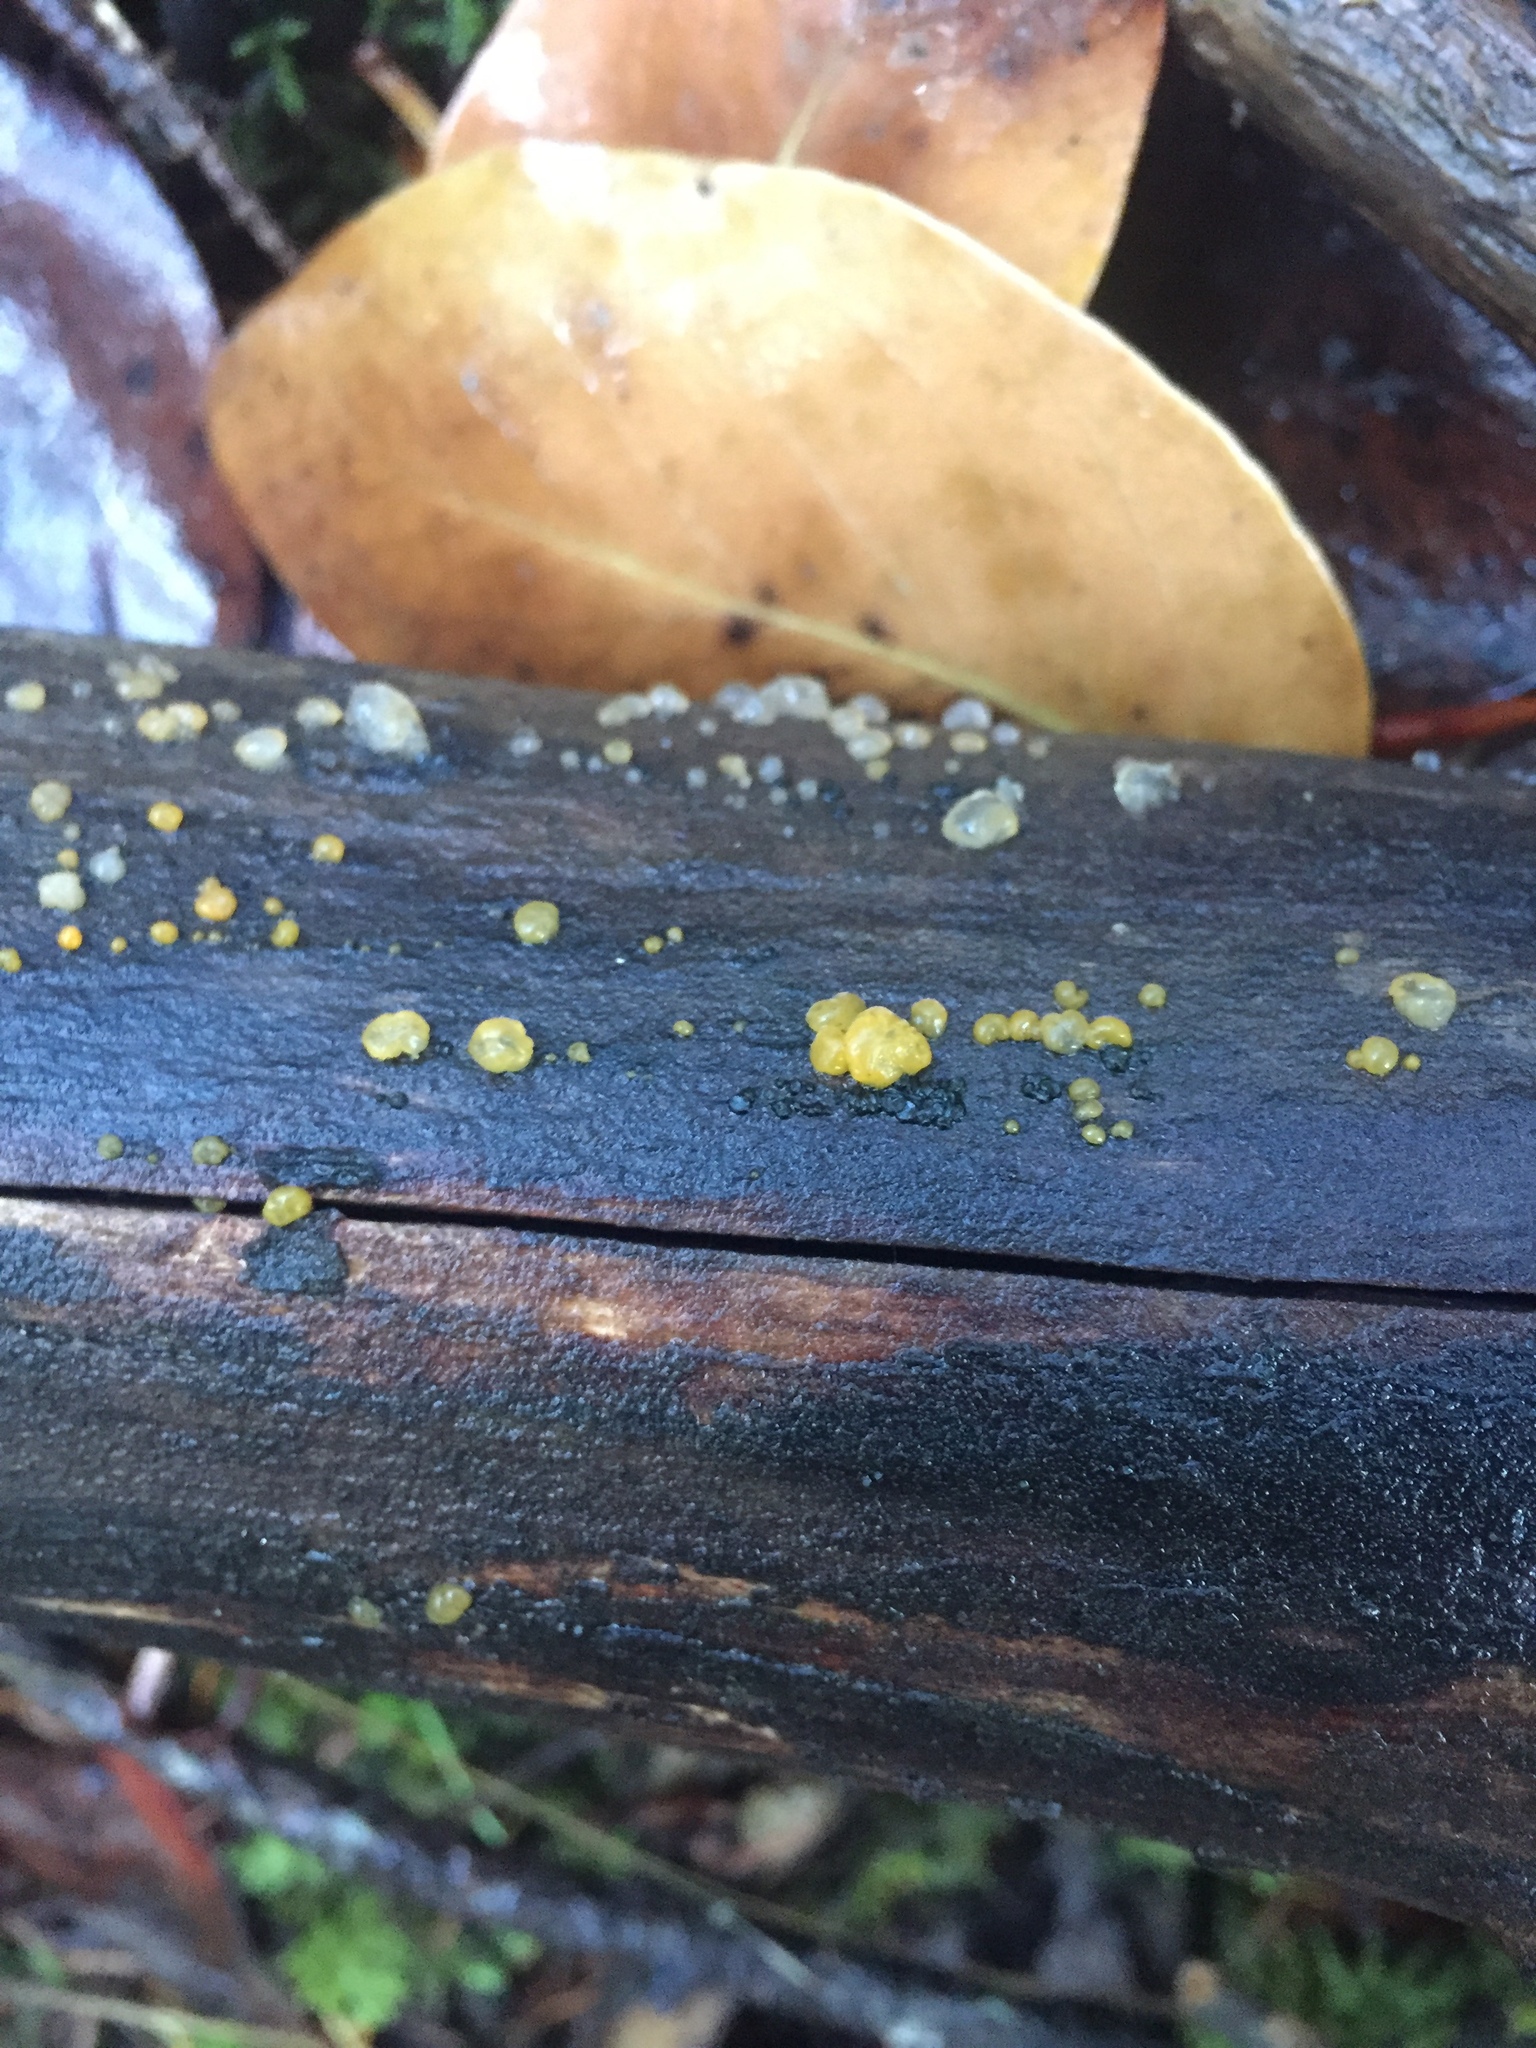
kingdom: Fungi
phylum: Basidiomycota
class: Dacrymycetes
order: Dacrymycetales
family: Dacrymycetaceae
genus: Dacrymyces
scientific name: Dacrymyces chrysospermus
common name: Orange jelly spot
